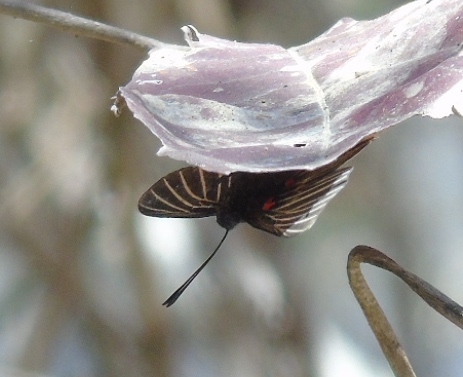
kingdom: Animalia
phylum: Arthropoda
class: Insecta
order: Lepidoptera
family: Lycaenidae
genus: Melanis
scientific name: Melanis
